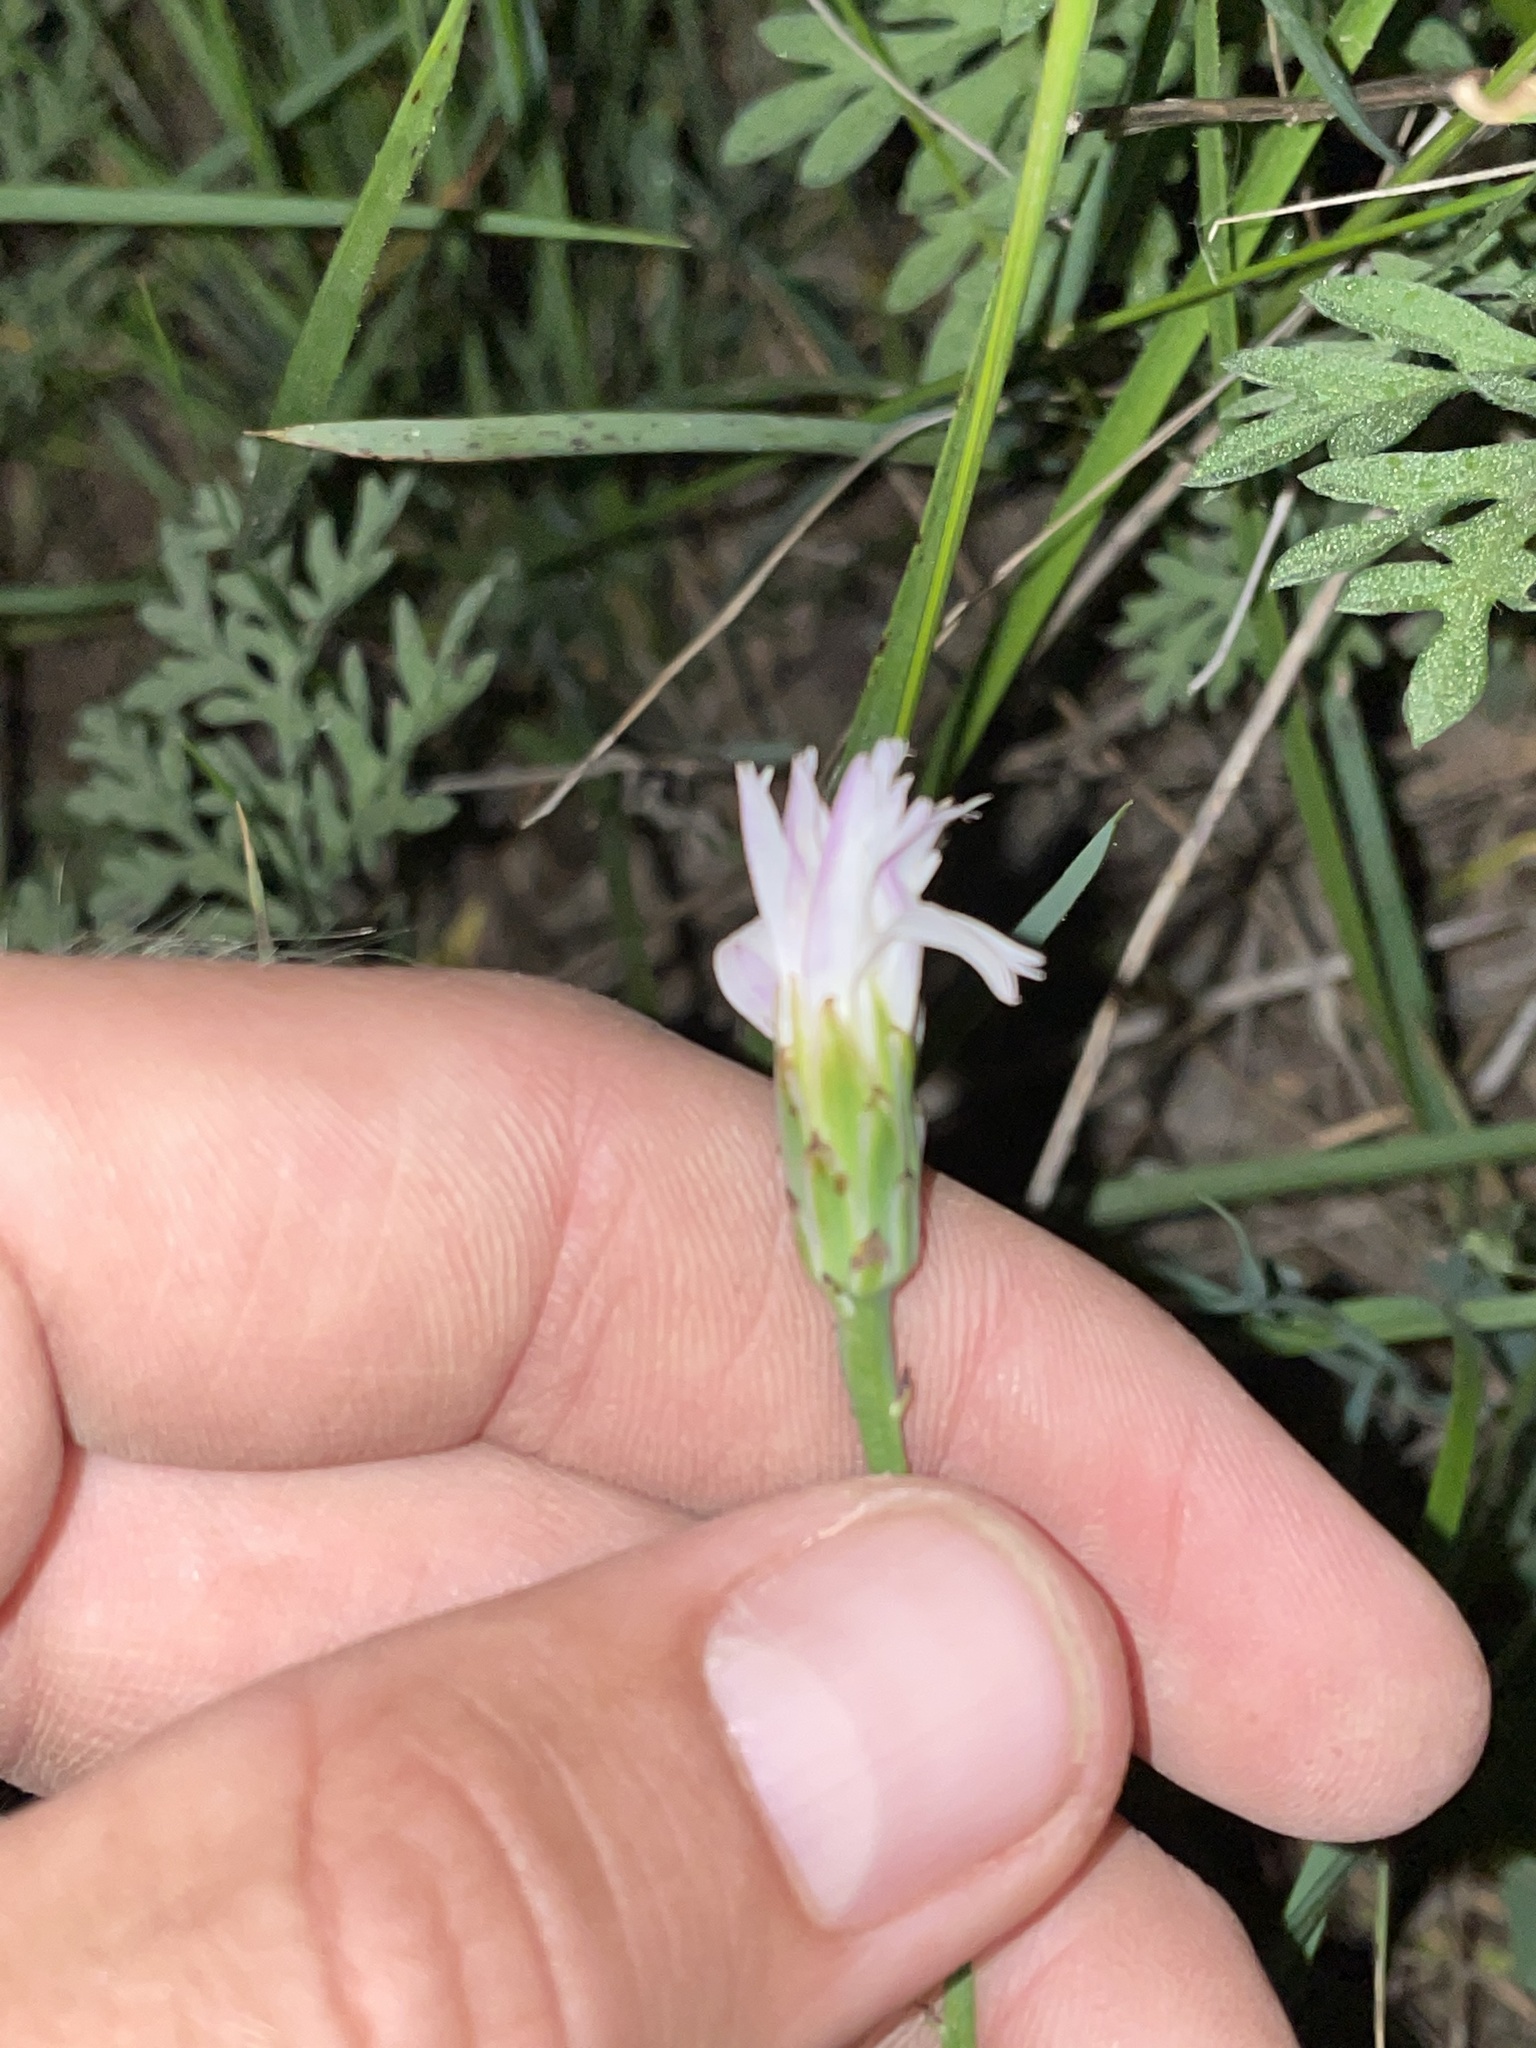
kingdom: Plantae
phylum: Tracheophyta
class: Magnoliopsida
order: Asterales
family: Asteraceae
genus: Pinaropappus
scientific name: Pinaropappus roseus
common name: Rock-lettuce
